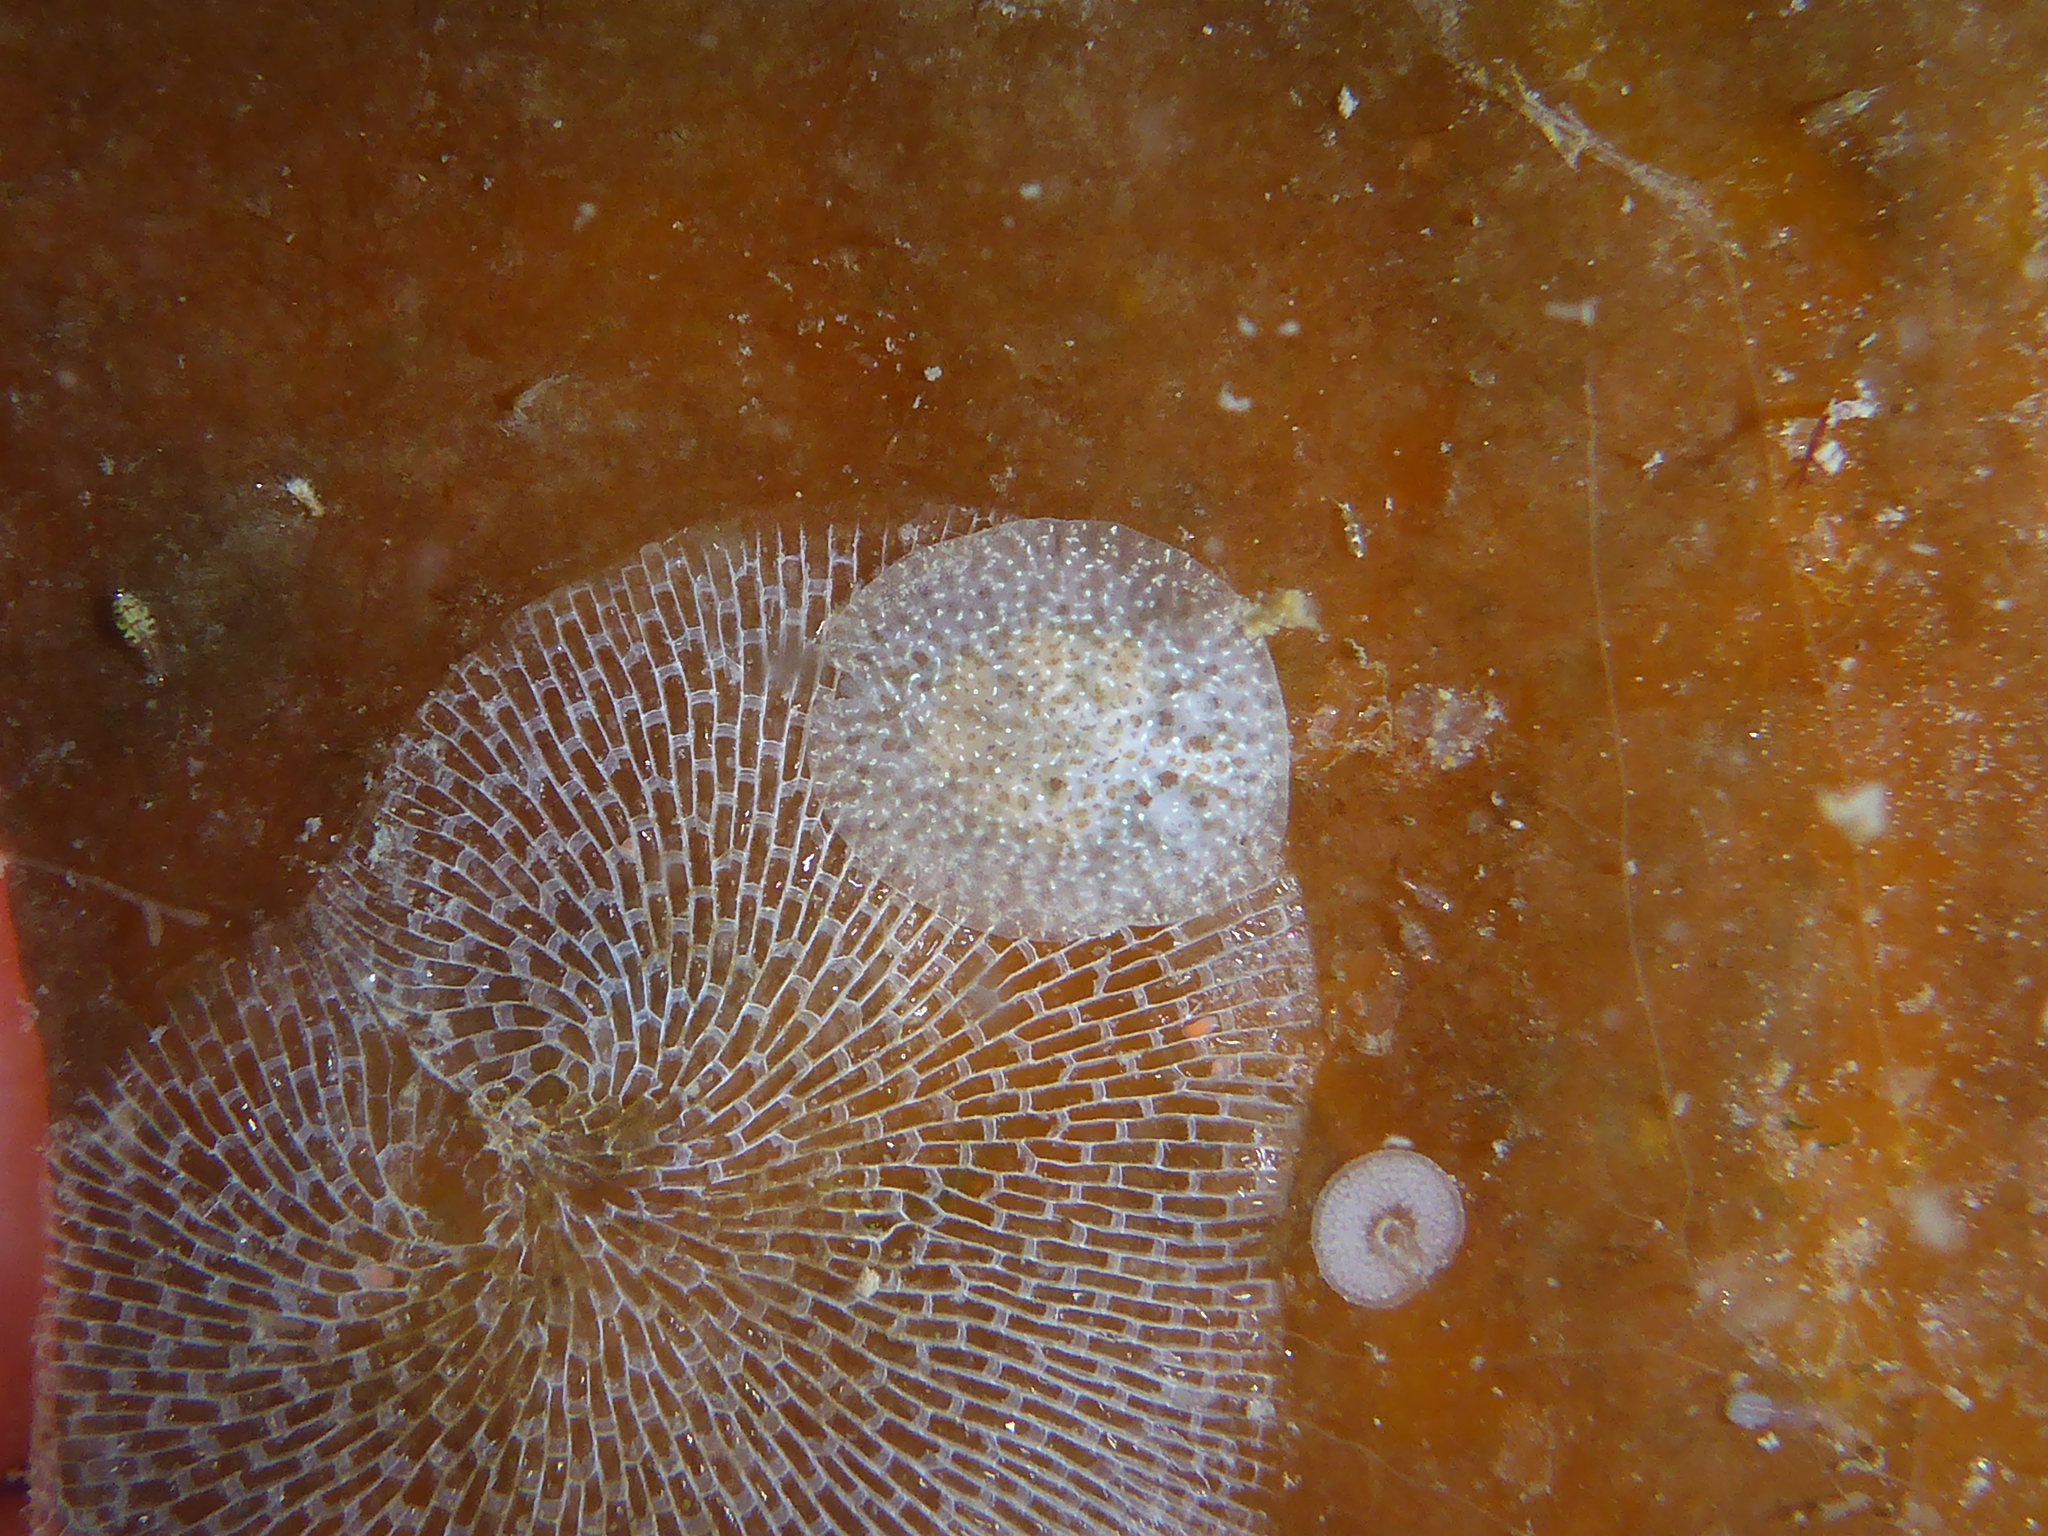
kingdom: Animalia
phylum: Mollusca
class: Gastropoda
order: Nudibranchia
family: Corambidae
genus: Corambe
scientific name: Corambe pacifica
